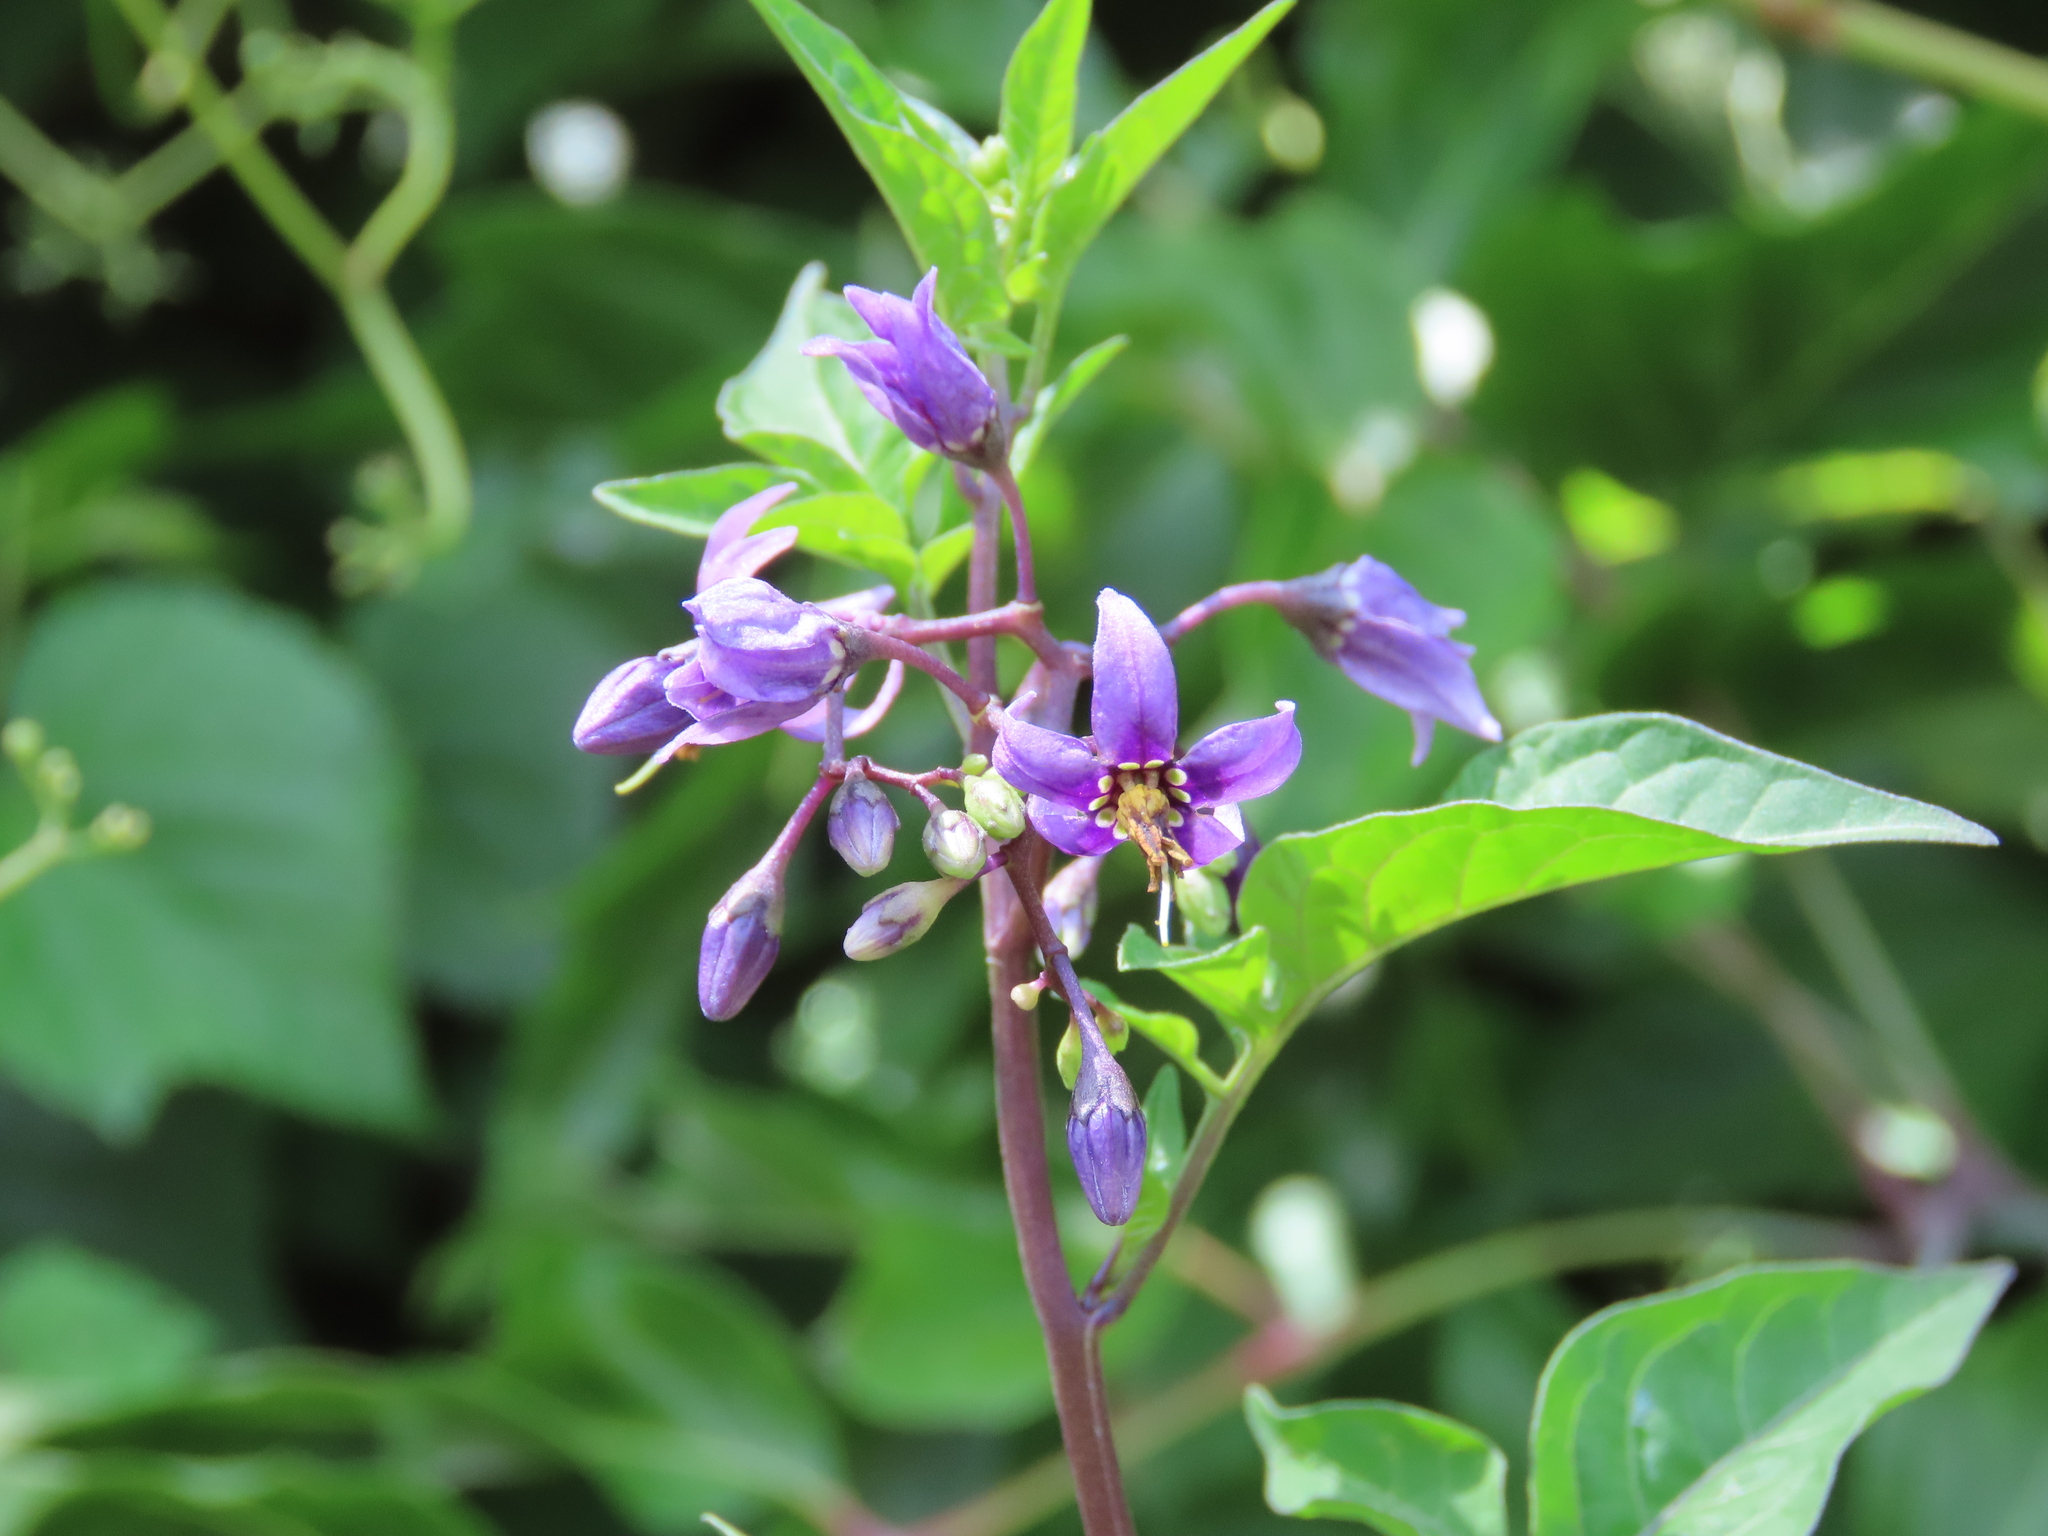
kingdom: Plantae
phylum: Tracheophyta
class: Magnoliopsida
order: Solanales
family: Solanaceae
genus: Solanum
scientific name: Solanum dulcamara
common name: Climbing nightshade
